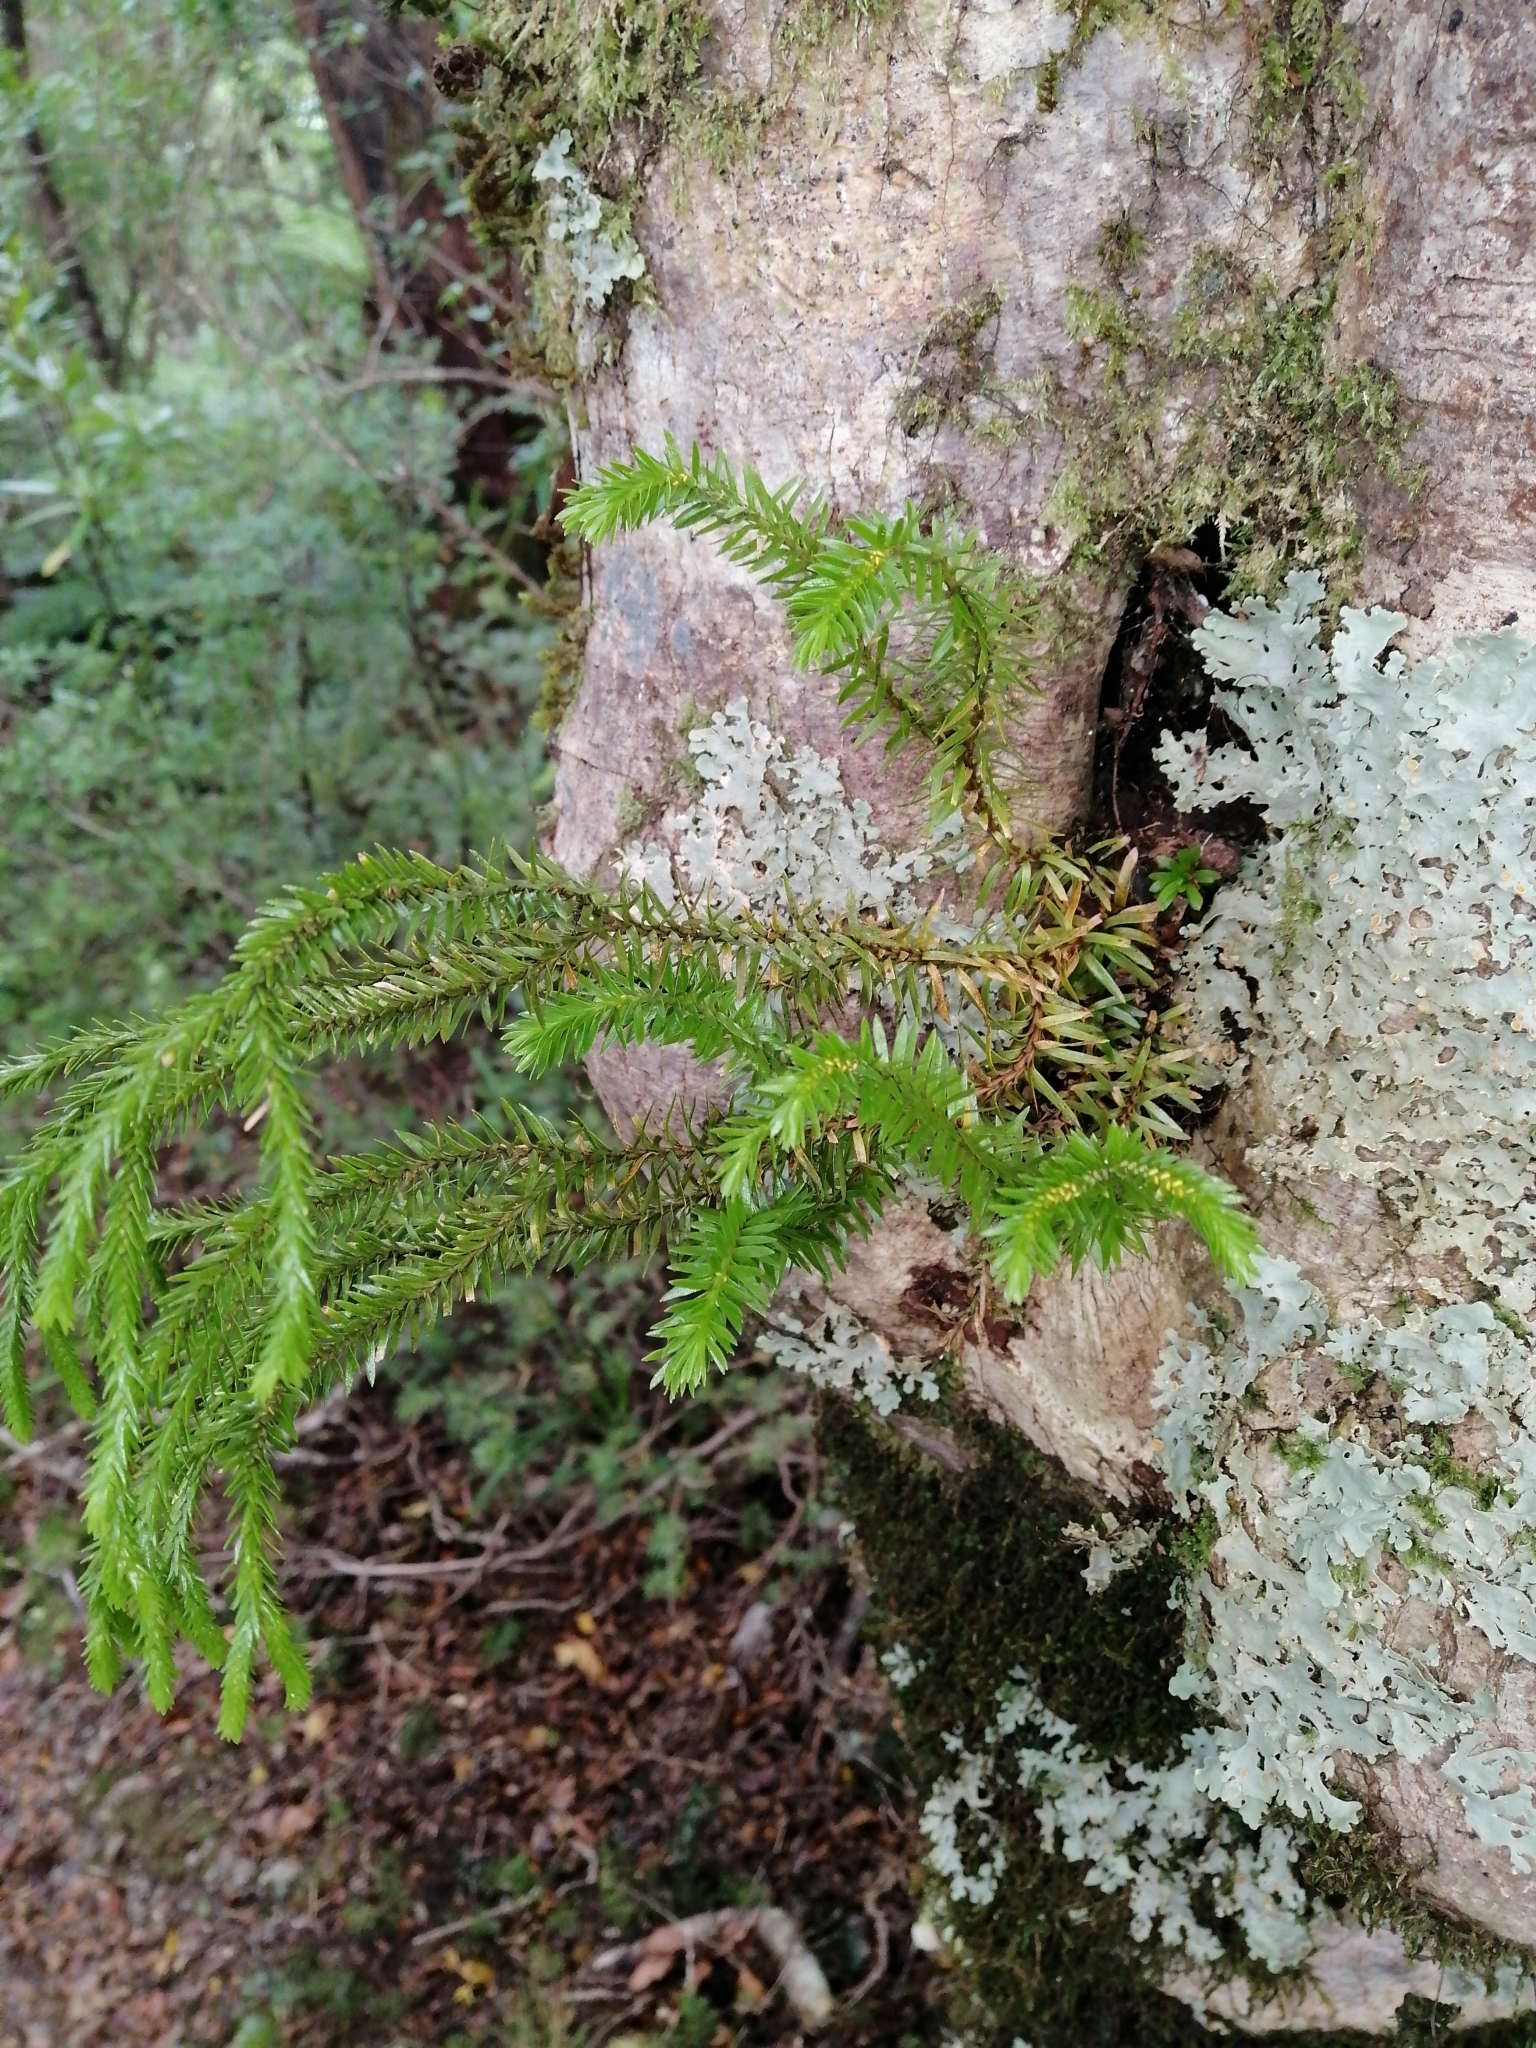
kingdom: Plantae
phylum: Tracheophyta
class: Lycopodiopsida
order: Lycopodiales
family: Lycopodiaceae
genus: Phlegmariurus
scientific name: Phlegmariurus varius
